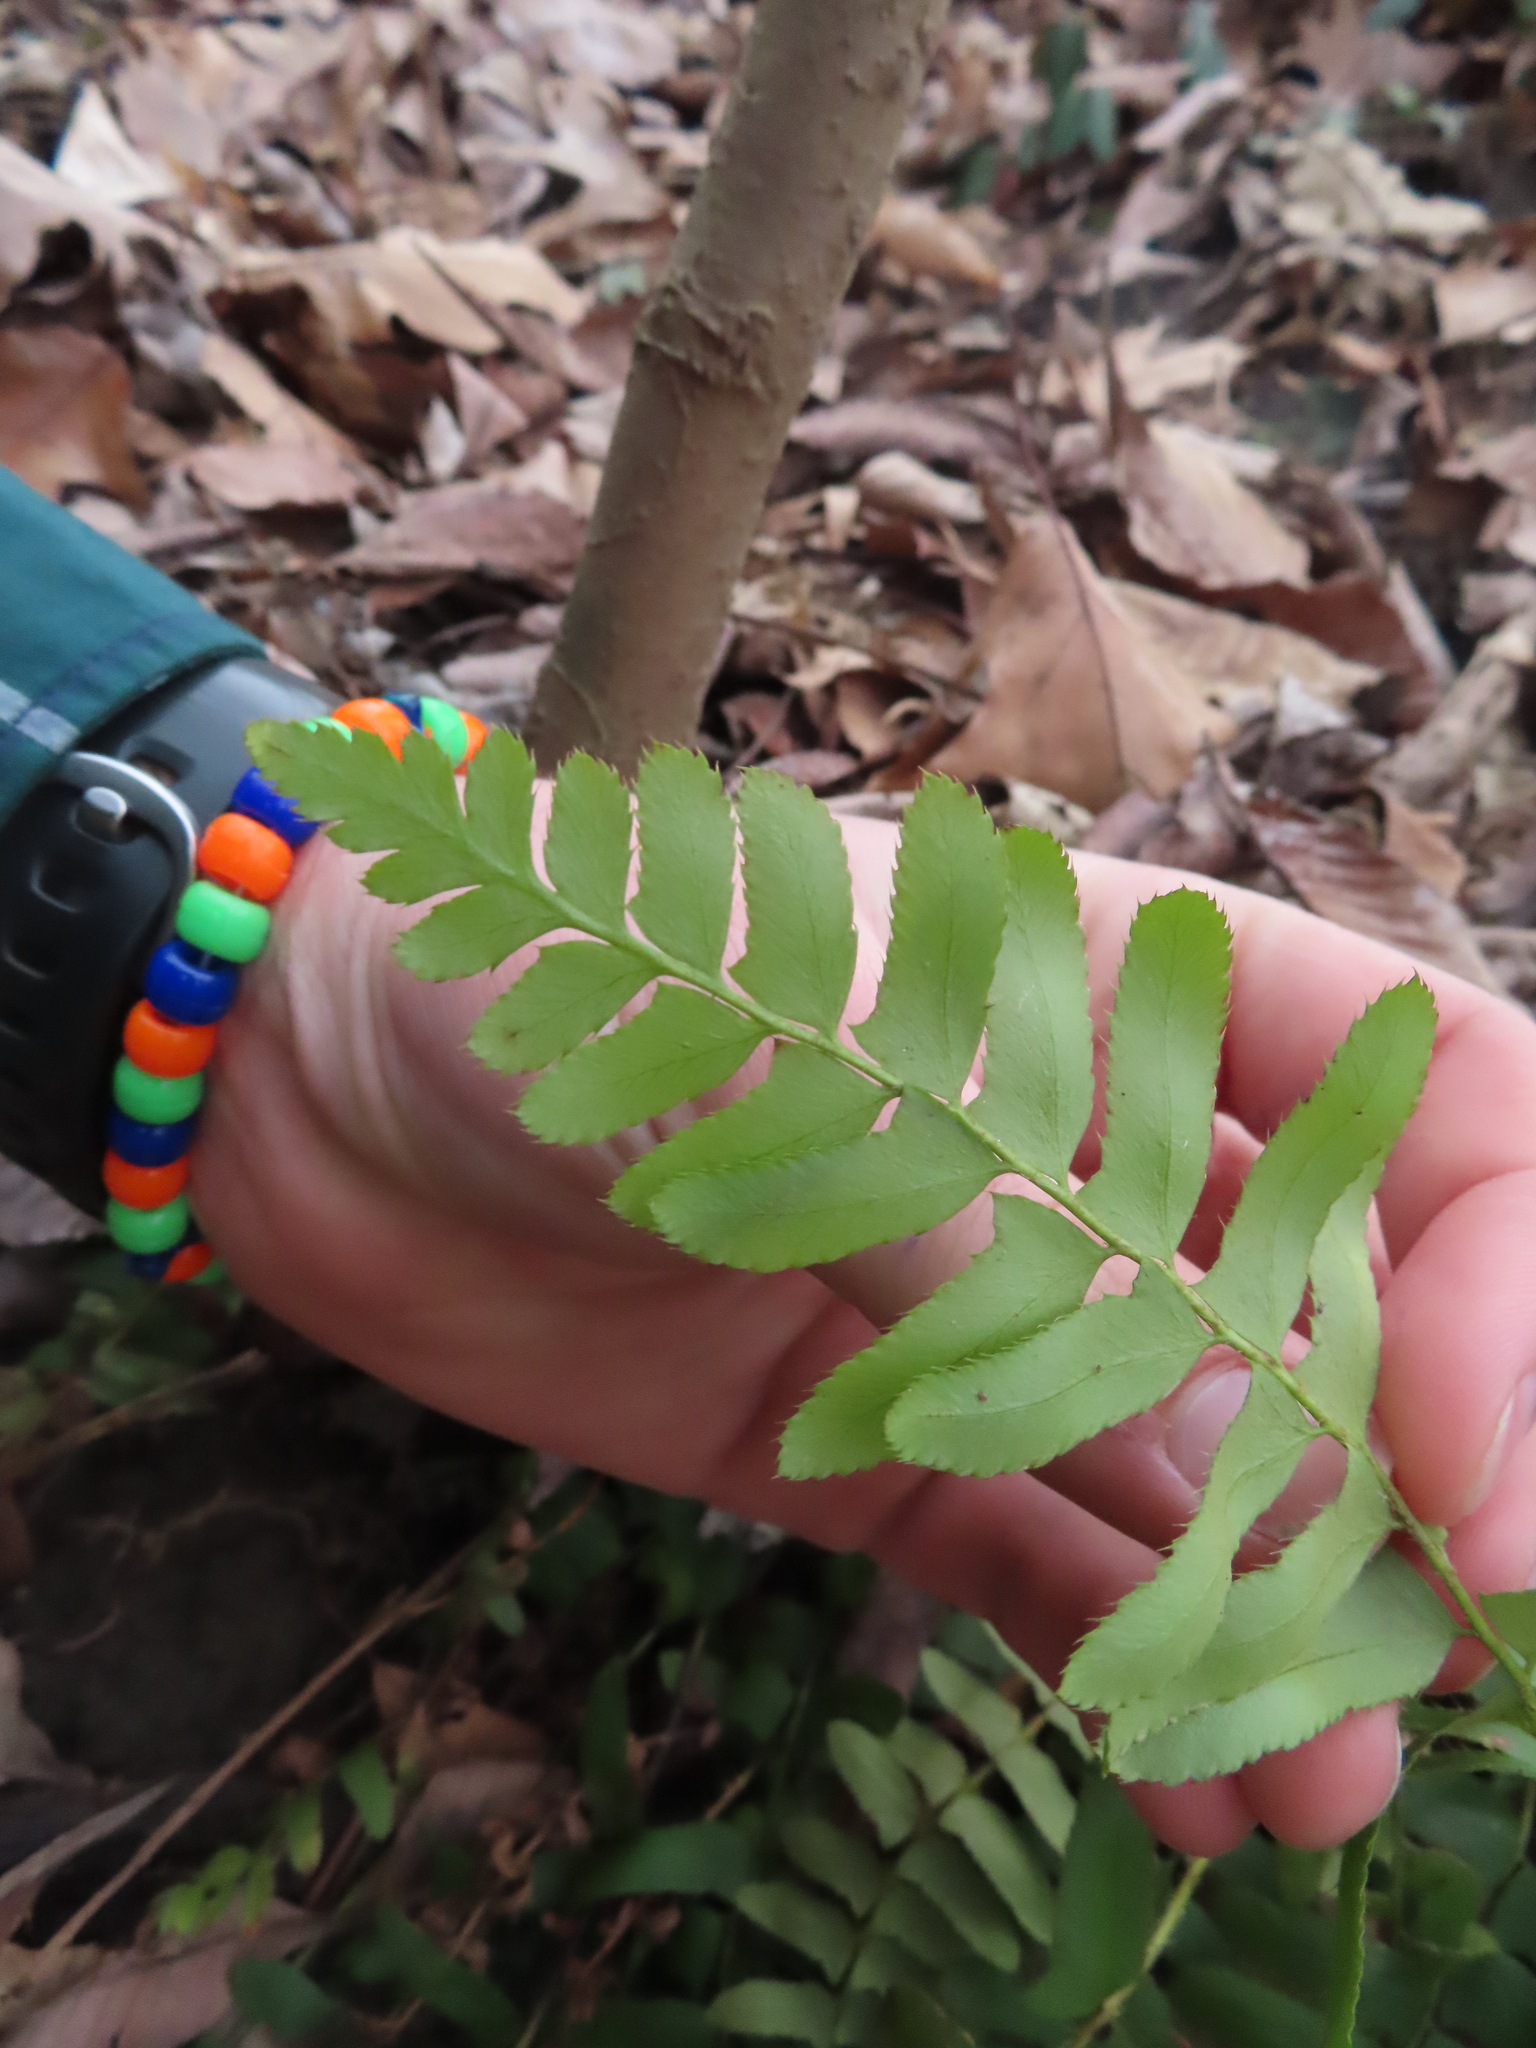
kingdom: Plantae
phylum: Tracheophyta
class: Polypodiopsida
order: Polypodiales
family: Dryopteridaceae
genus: Polystichum
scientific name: Polystichum acrostichoides
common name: Christmas fern
